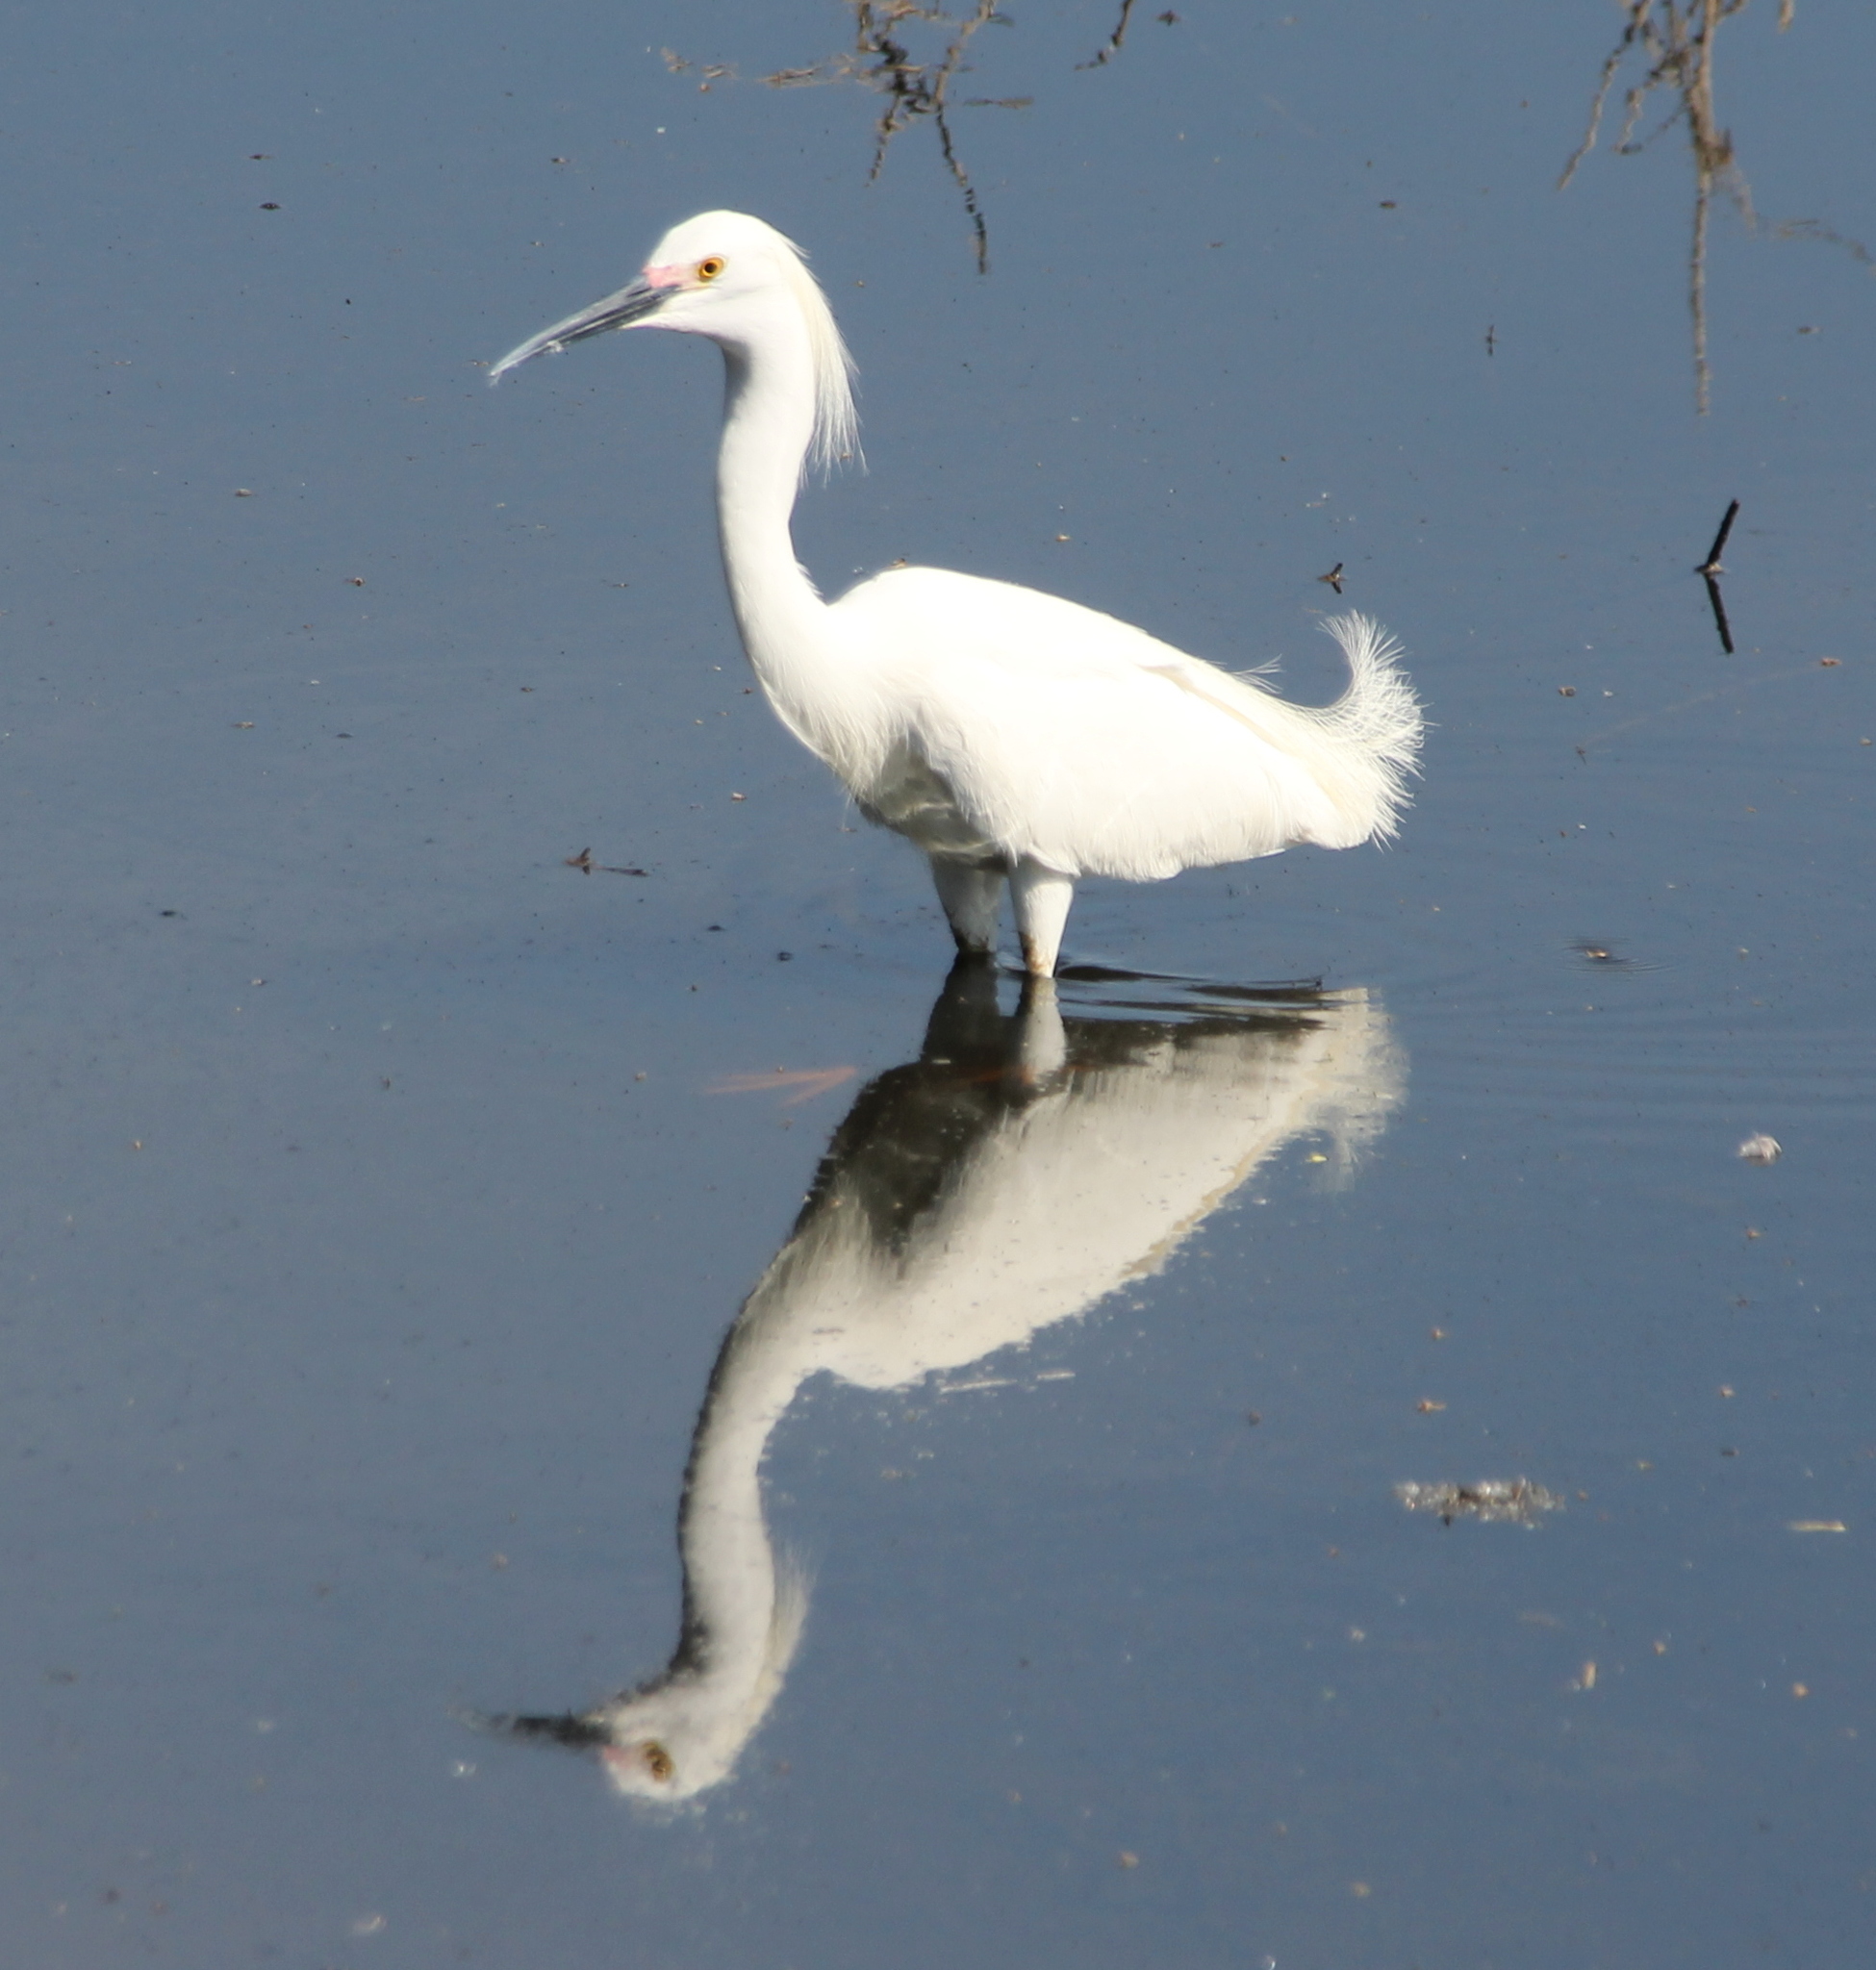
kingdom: Animalia
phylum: Chordata
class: Aves
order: Pelecaniformes
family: Ardeidae
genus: Egretta
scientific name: Egretta thula
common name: Snowy egret
